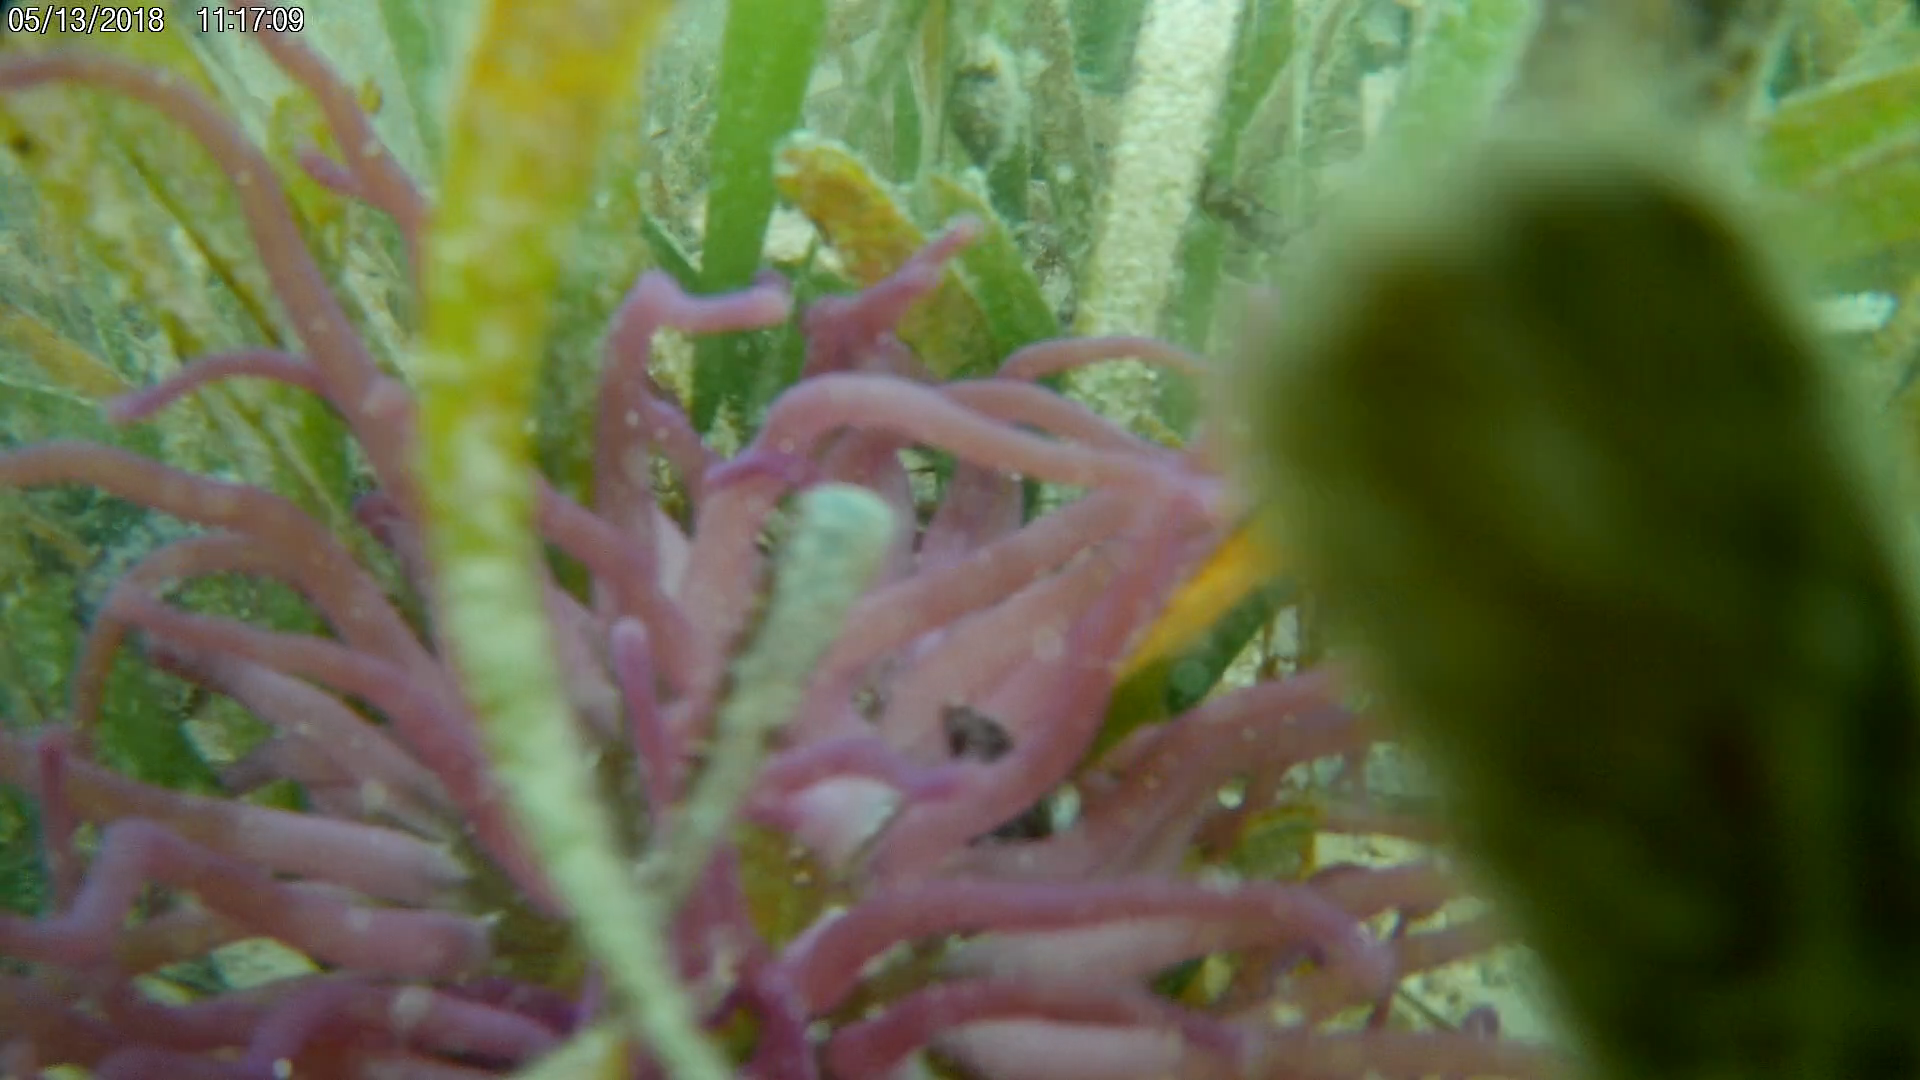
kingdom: Animalia
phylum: Cnidaria
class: Anthozoa
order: Actiniaria
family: Actiniidae
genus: Condylactis
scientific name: Condylactis gigantea
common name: Giant caribbean anemone
